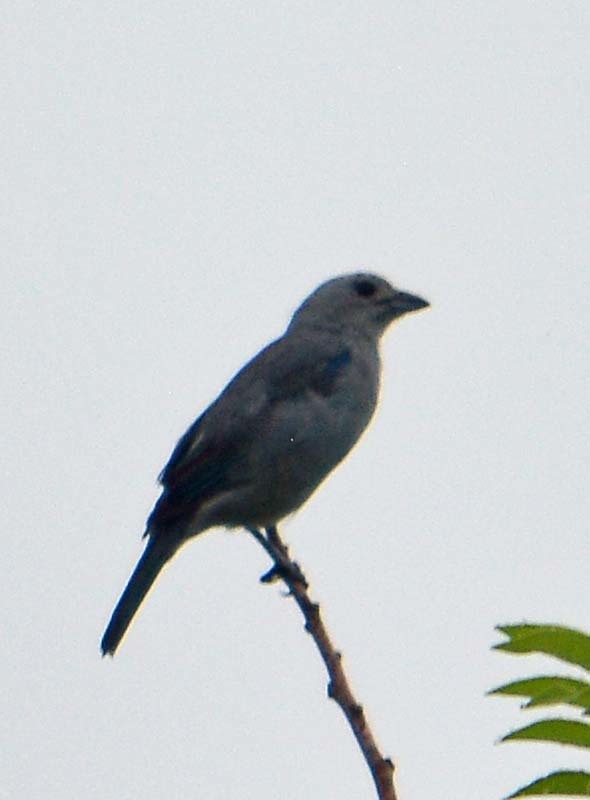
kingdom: Animalia
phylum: Chordata
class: Aves
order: Passeriformes
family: Thraupidae
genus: Thraupis
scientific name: Thraupis episcopus
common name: Blue-grey tanager
